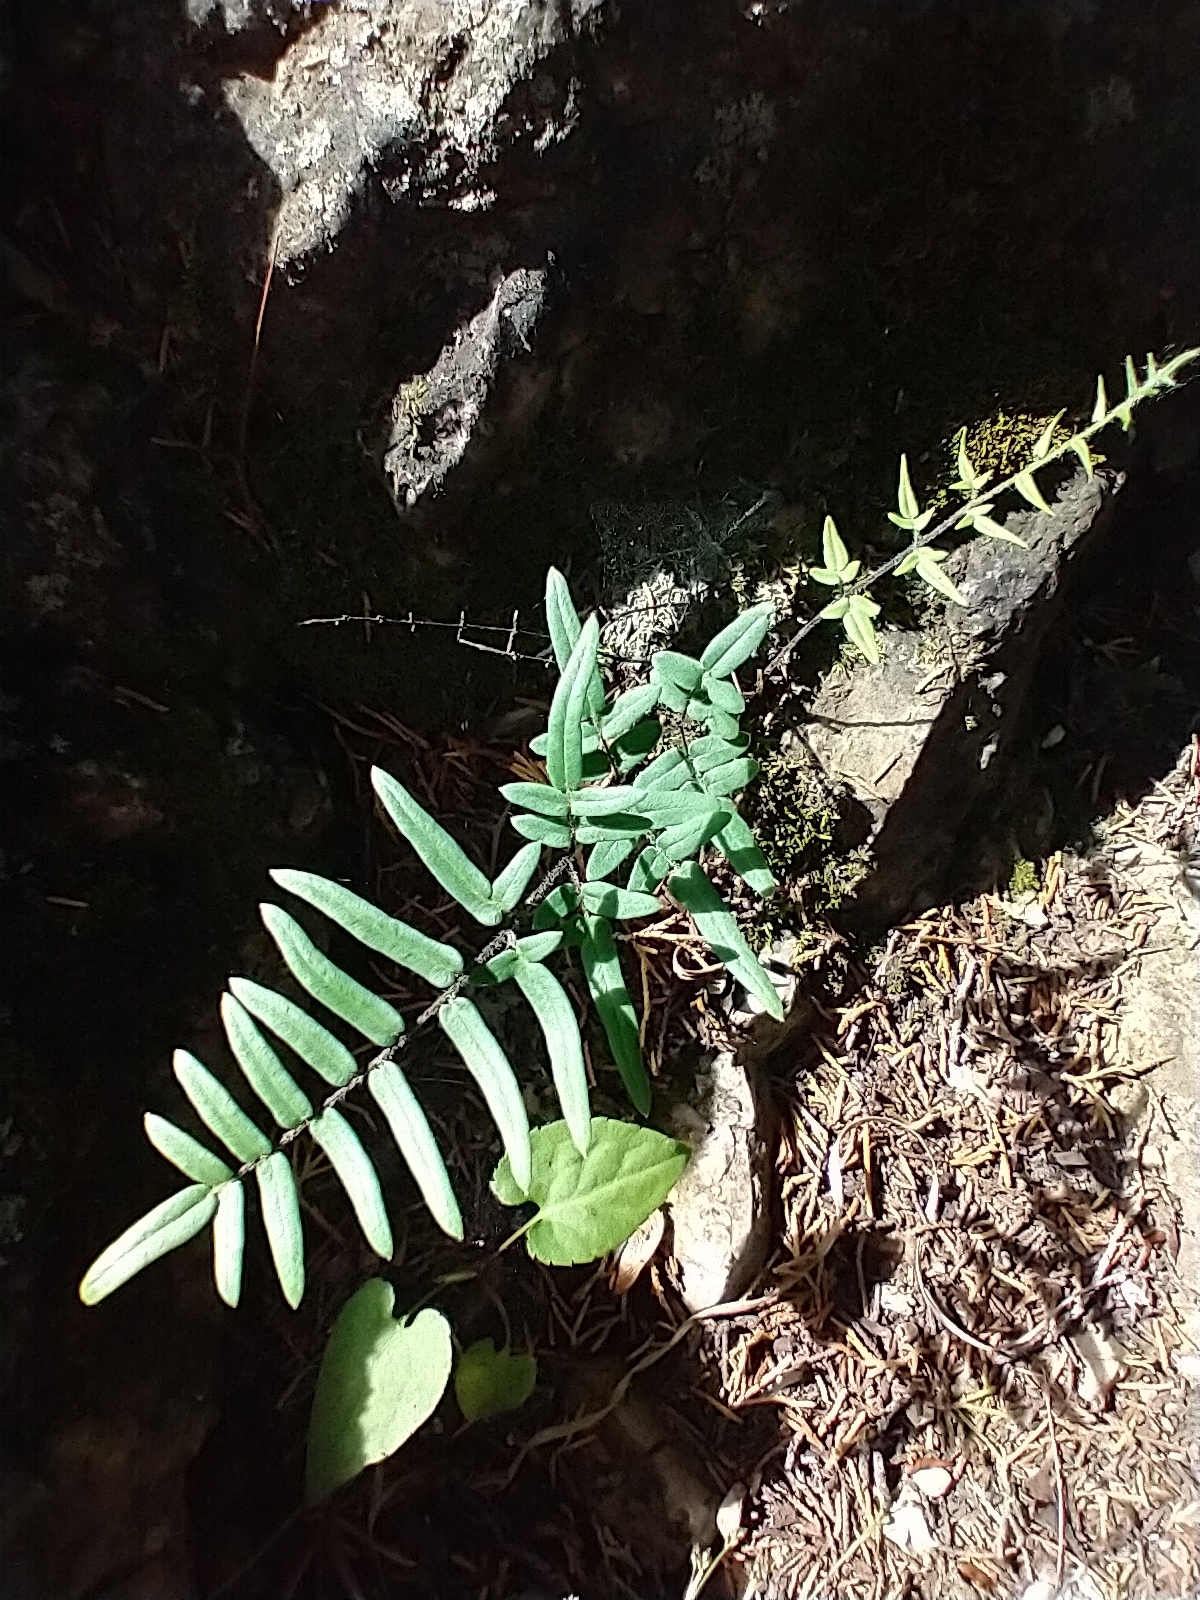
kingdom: Plantae
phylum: Tracheophyta
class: Polypodiopsida
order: Polypodiales
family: Pteridaceae
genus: Pellaea
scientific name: Pellaea atropurpurea
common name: Hairy cliffbrake
